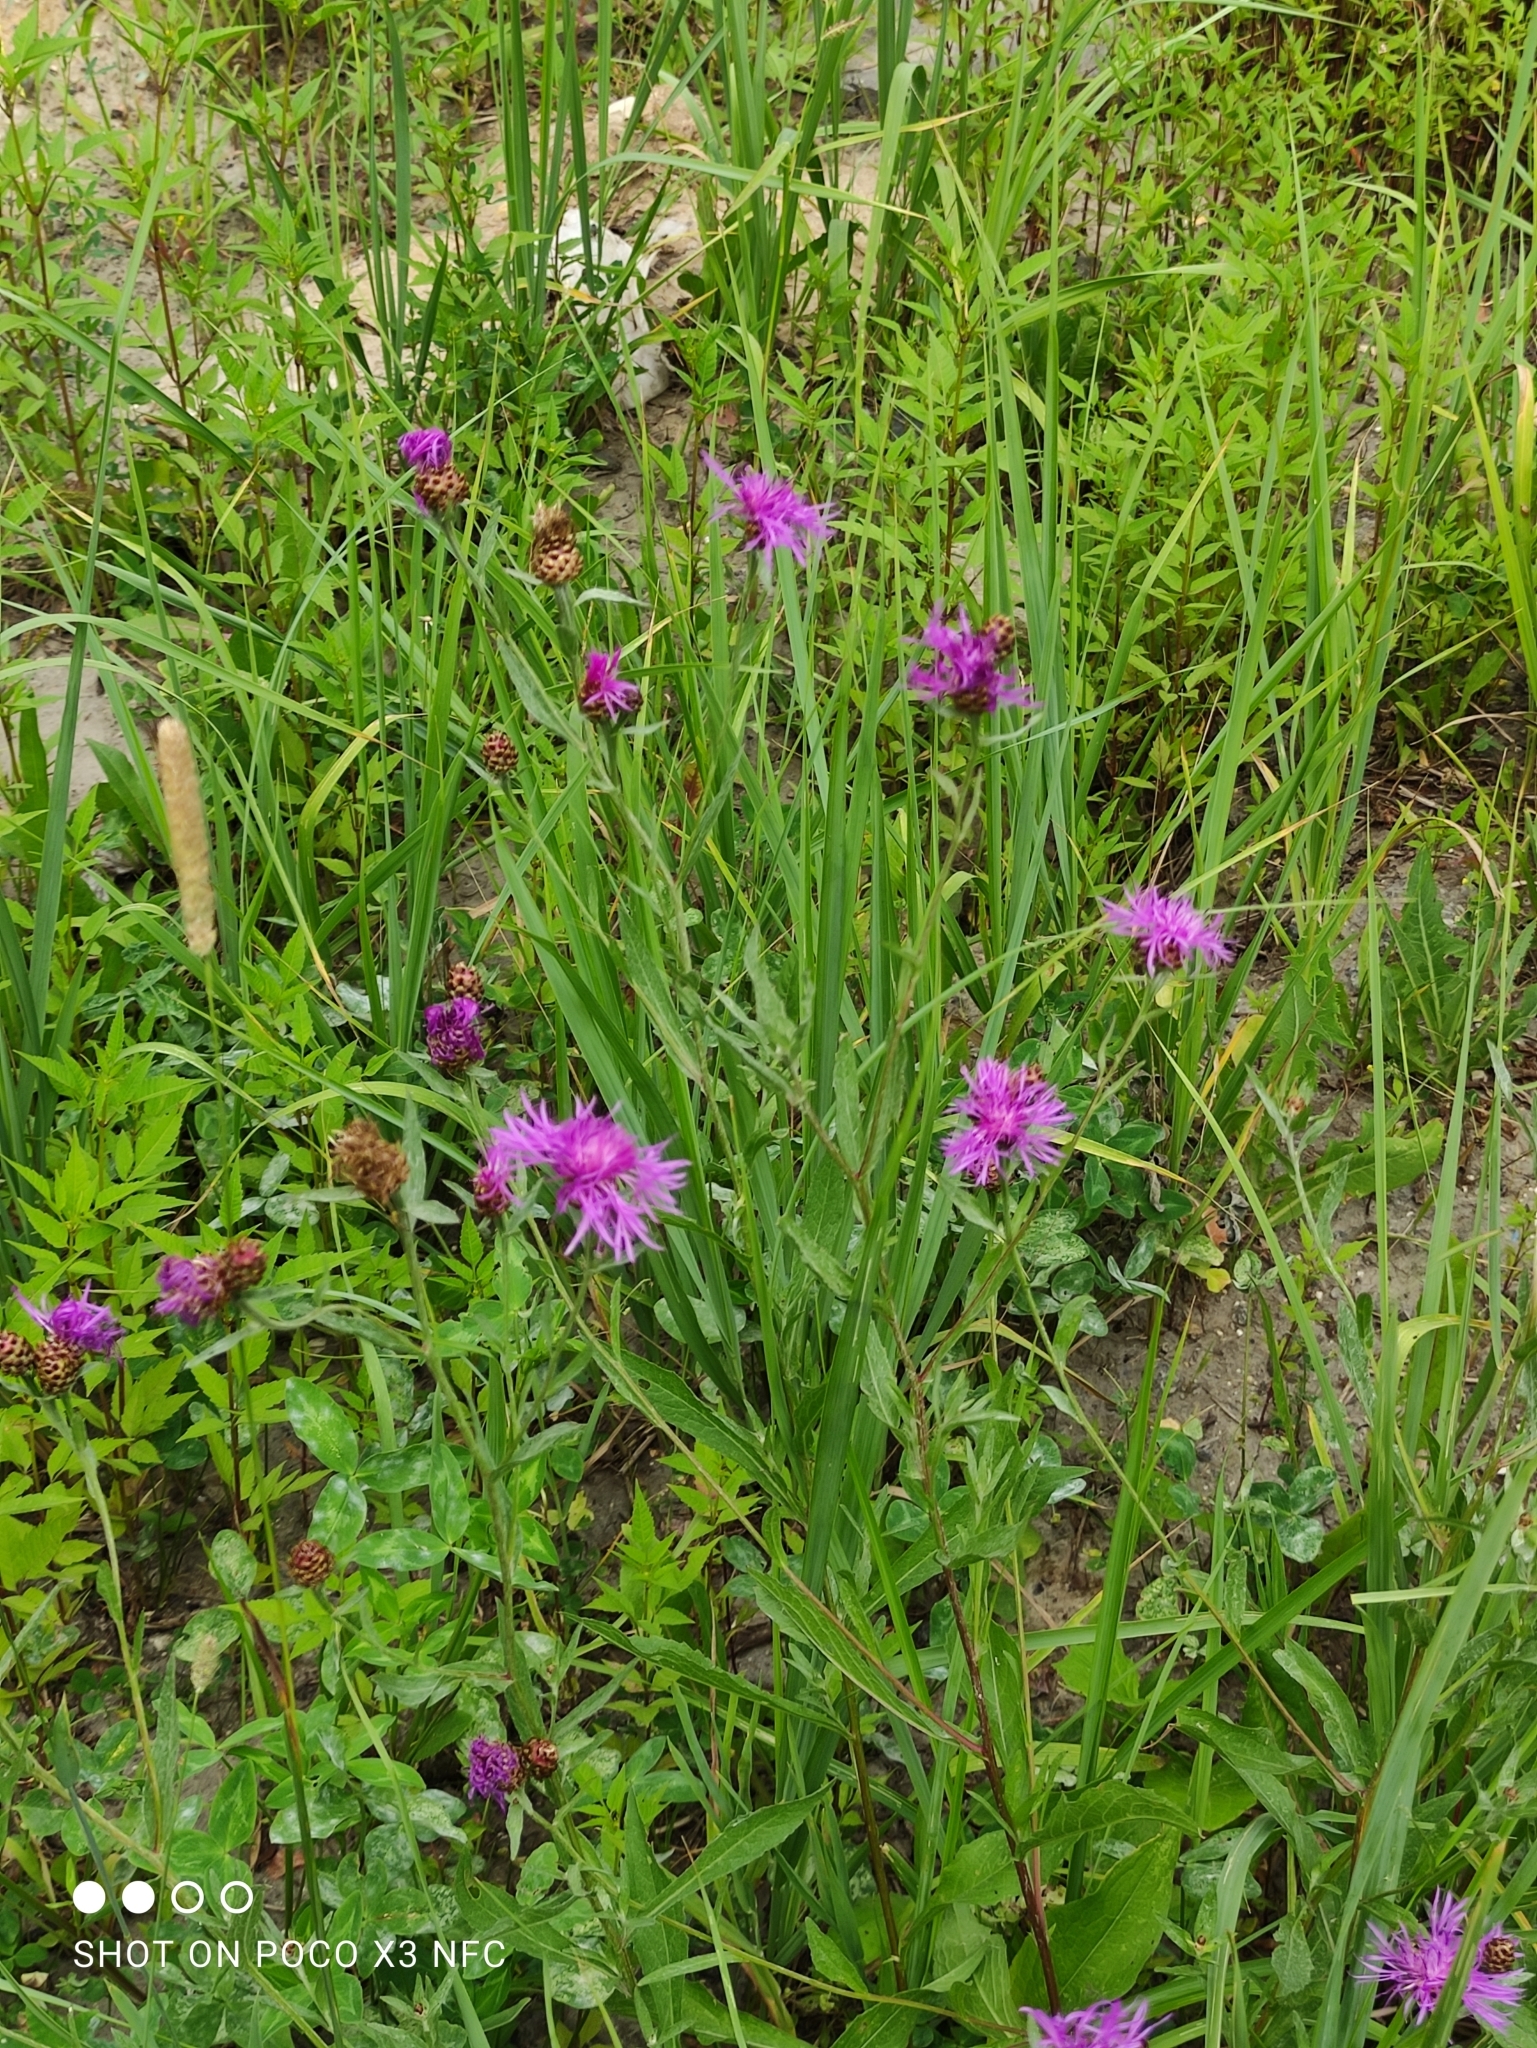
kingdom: Plantae
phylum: Tracheophyta
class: Magnoliopsida
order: Asterales
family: Asteraceae
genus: Centaurea
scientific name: Centaurea jacea
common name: Brown knapweed
